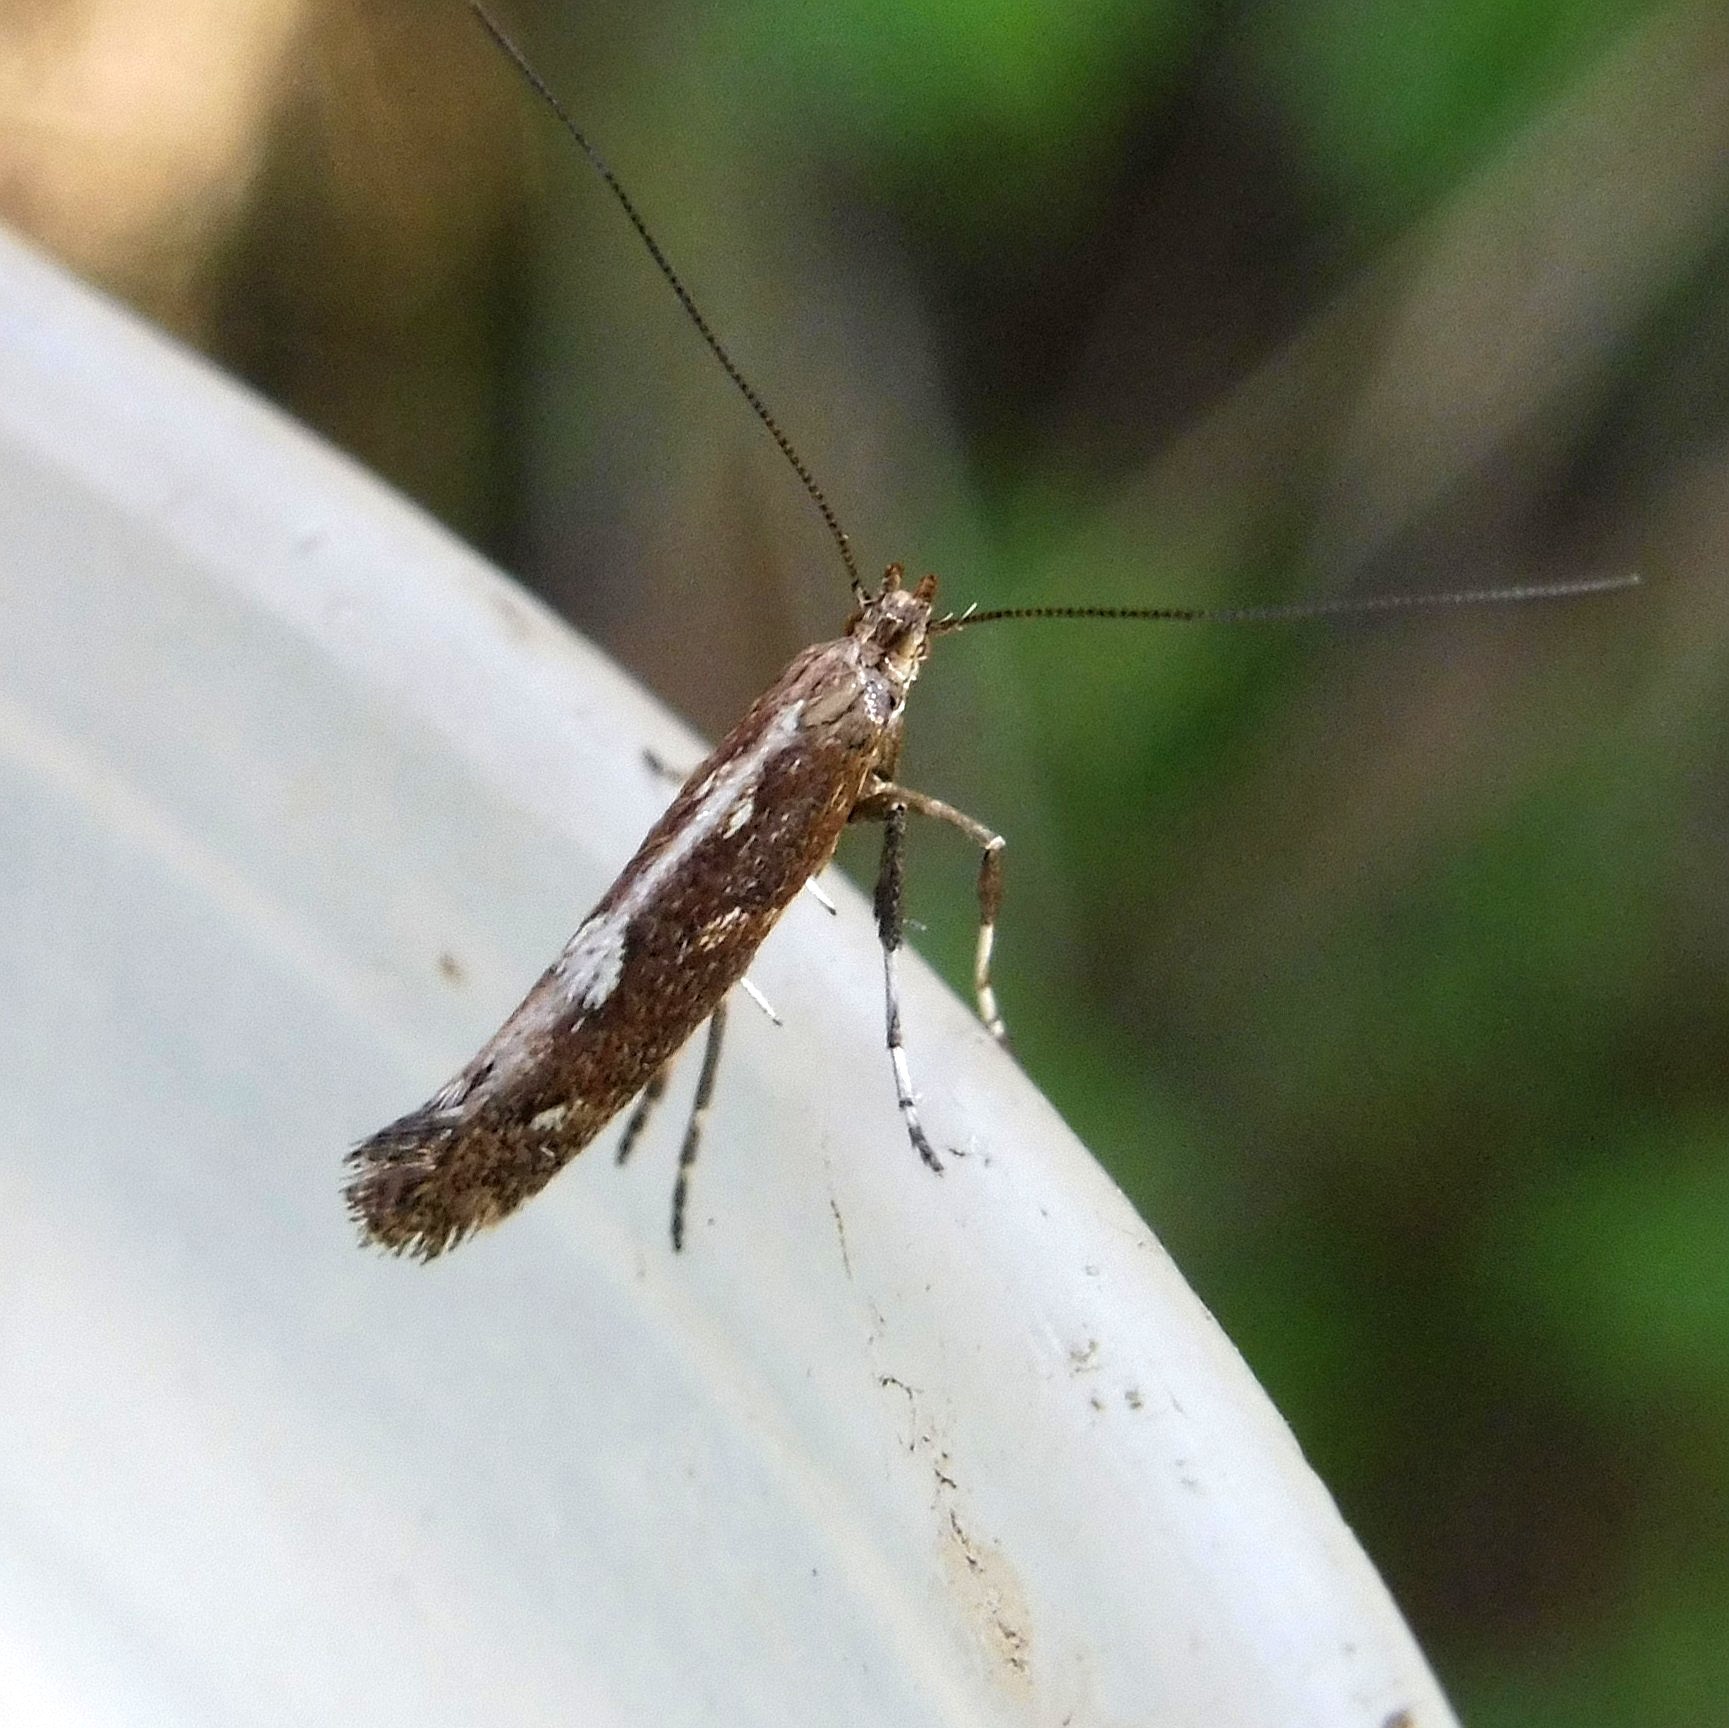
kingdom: Animalia
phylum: Arthropoda
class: Insecta
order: Lepidoptera
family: Gracillariidae
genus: Calybites
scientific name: Calybites phasianipennella
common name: Little slender
